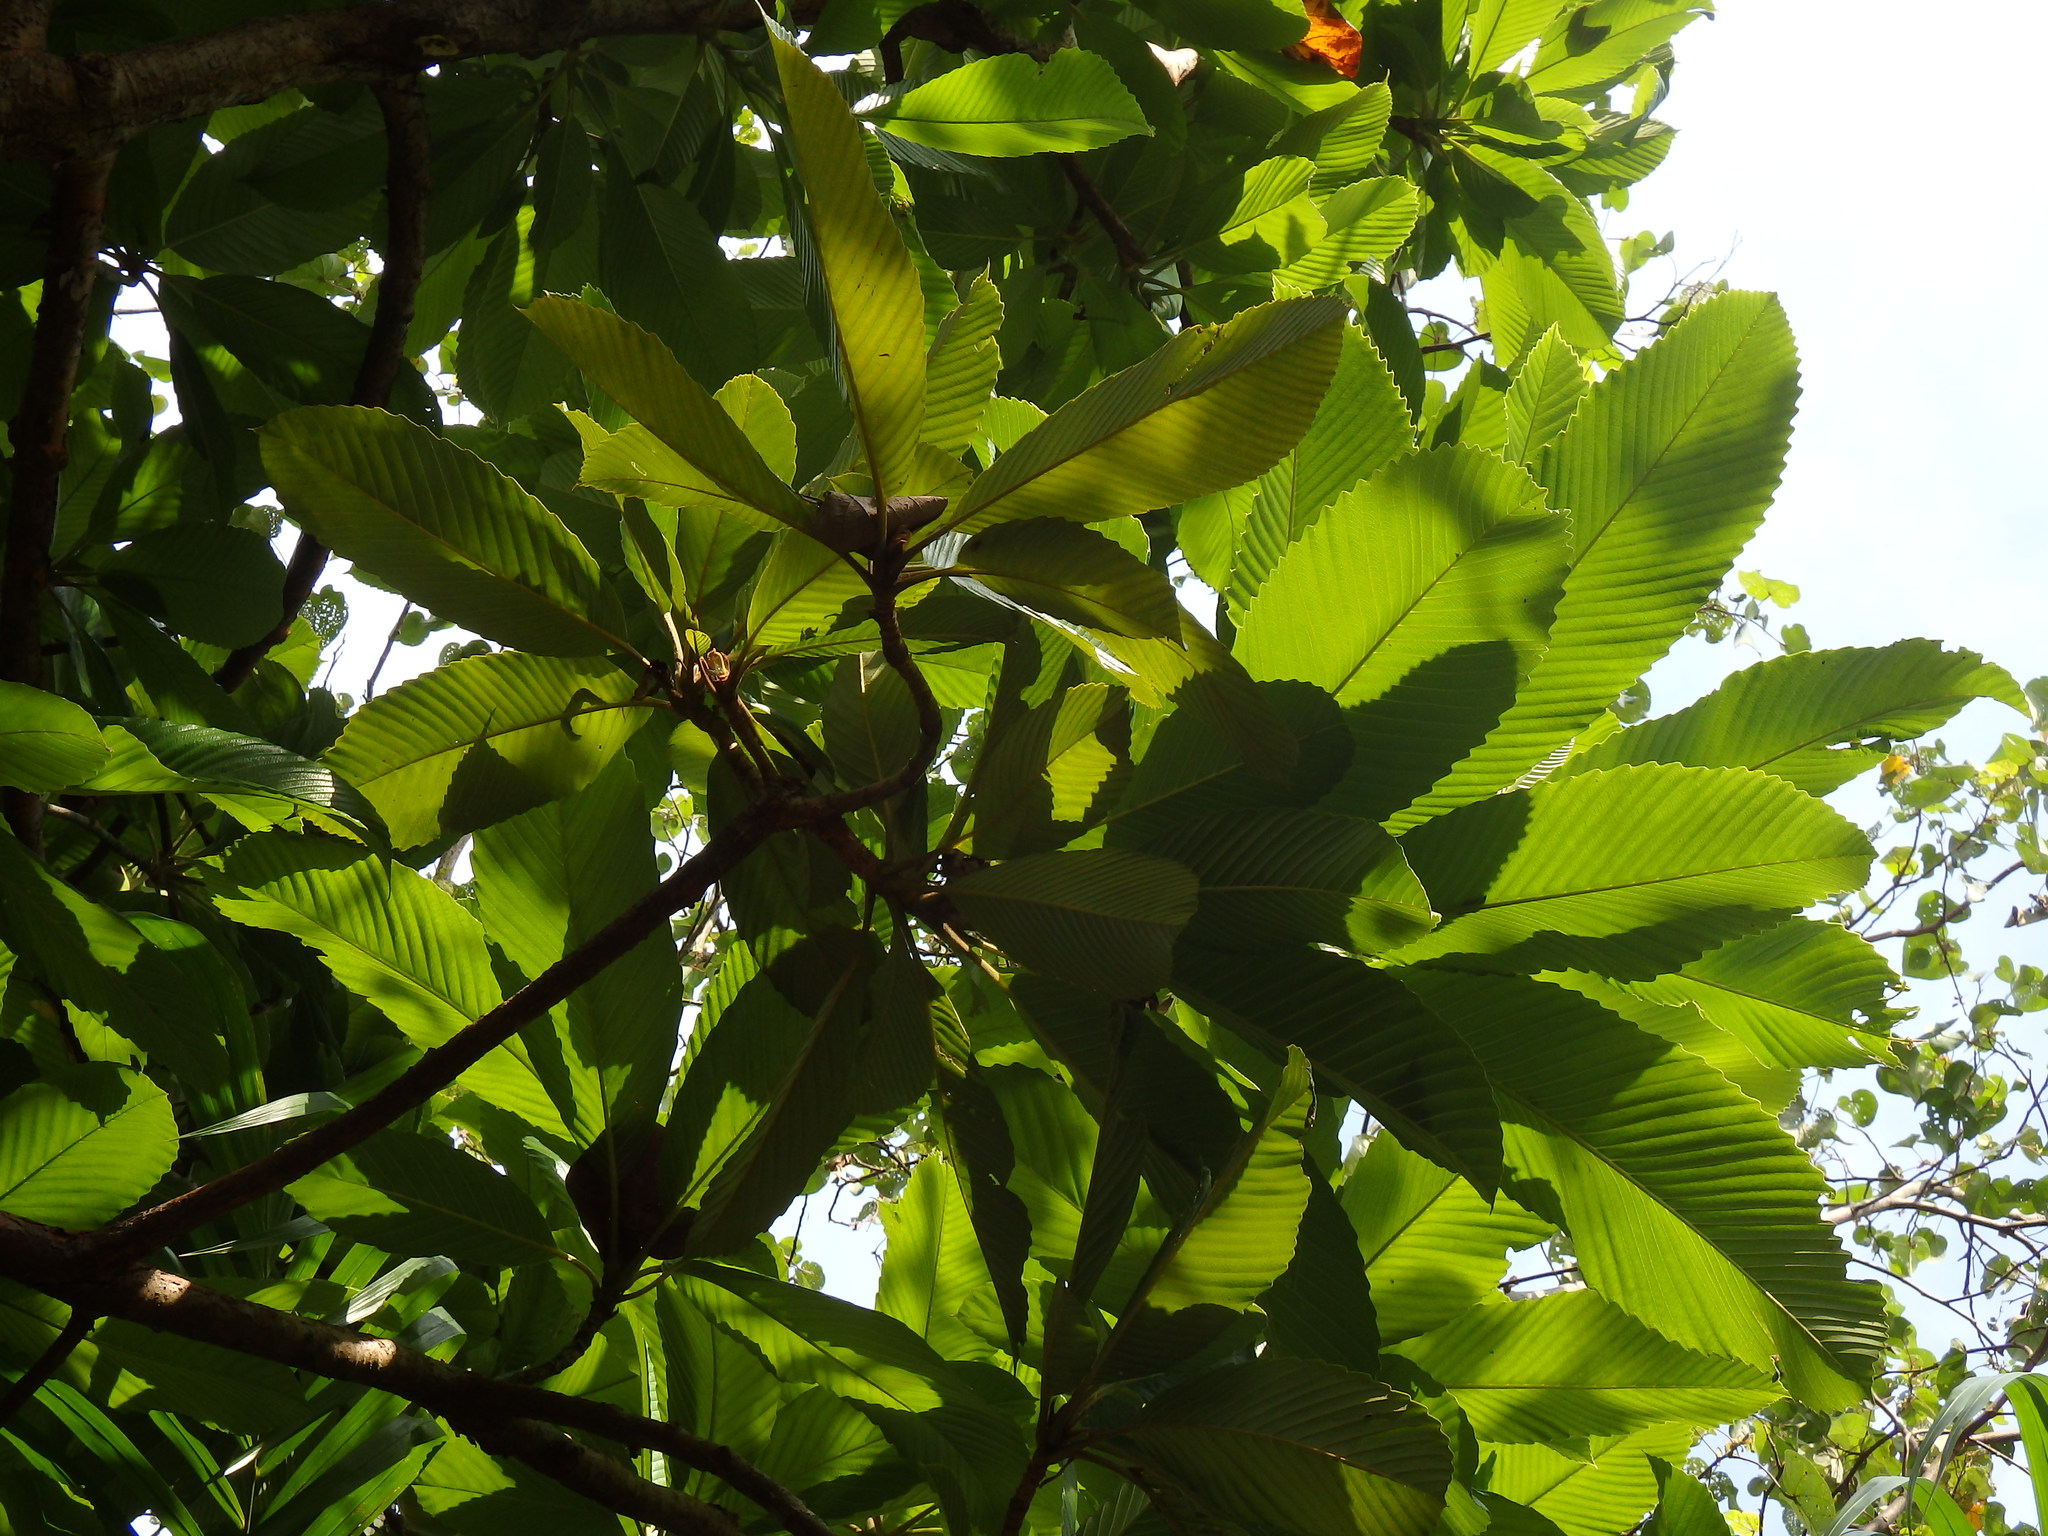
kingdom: Plantae
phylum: Tracheophyta
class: Magnoliopsida
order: Dilleniales
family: Dilleniaceae
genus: Dillenia
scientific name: Dillenia indica
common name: Elephant apple
